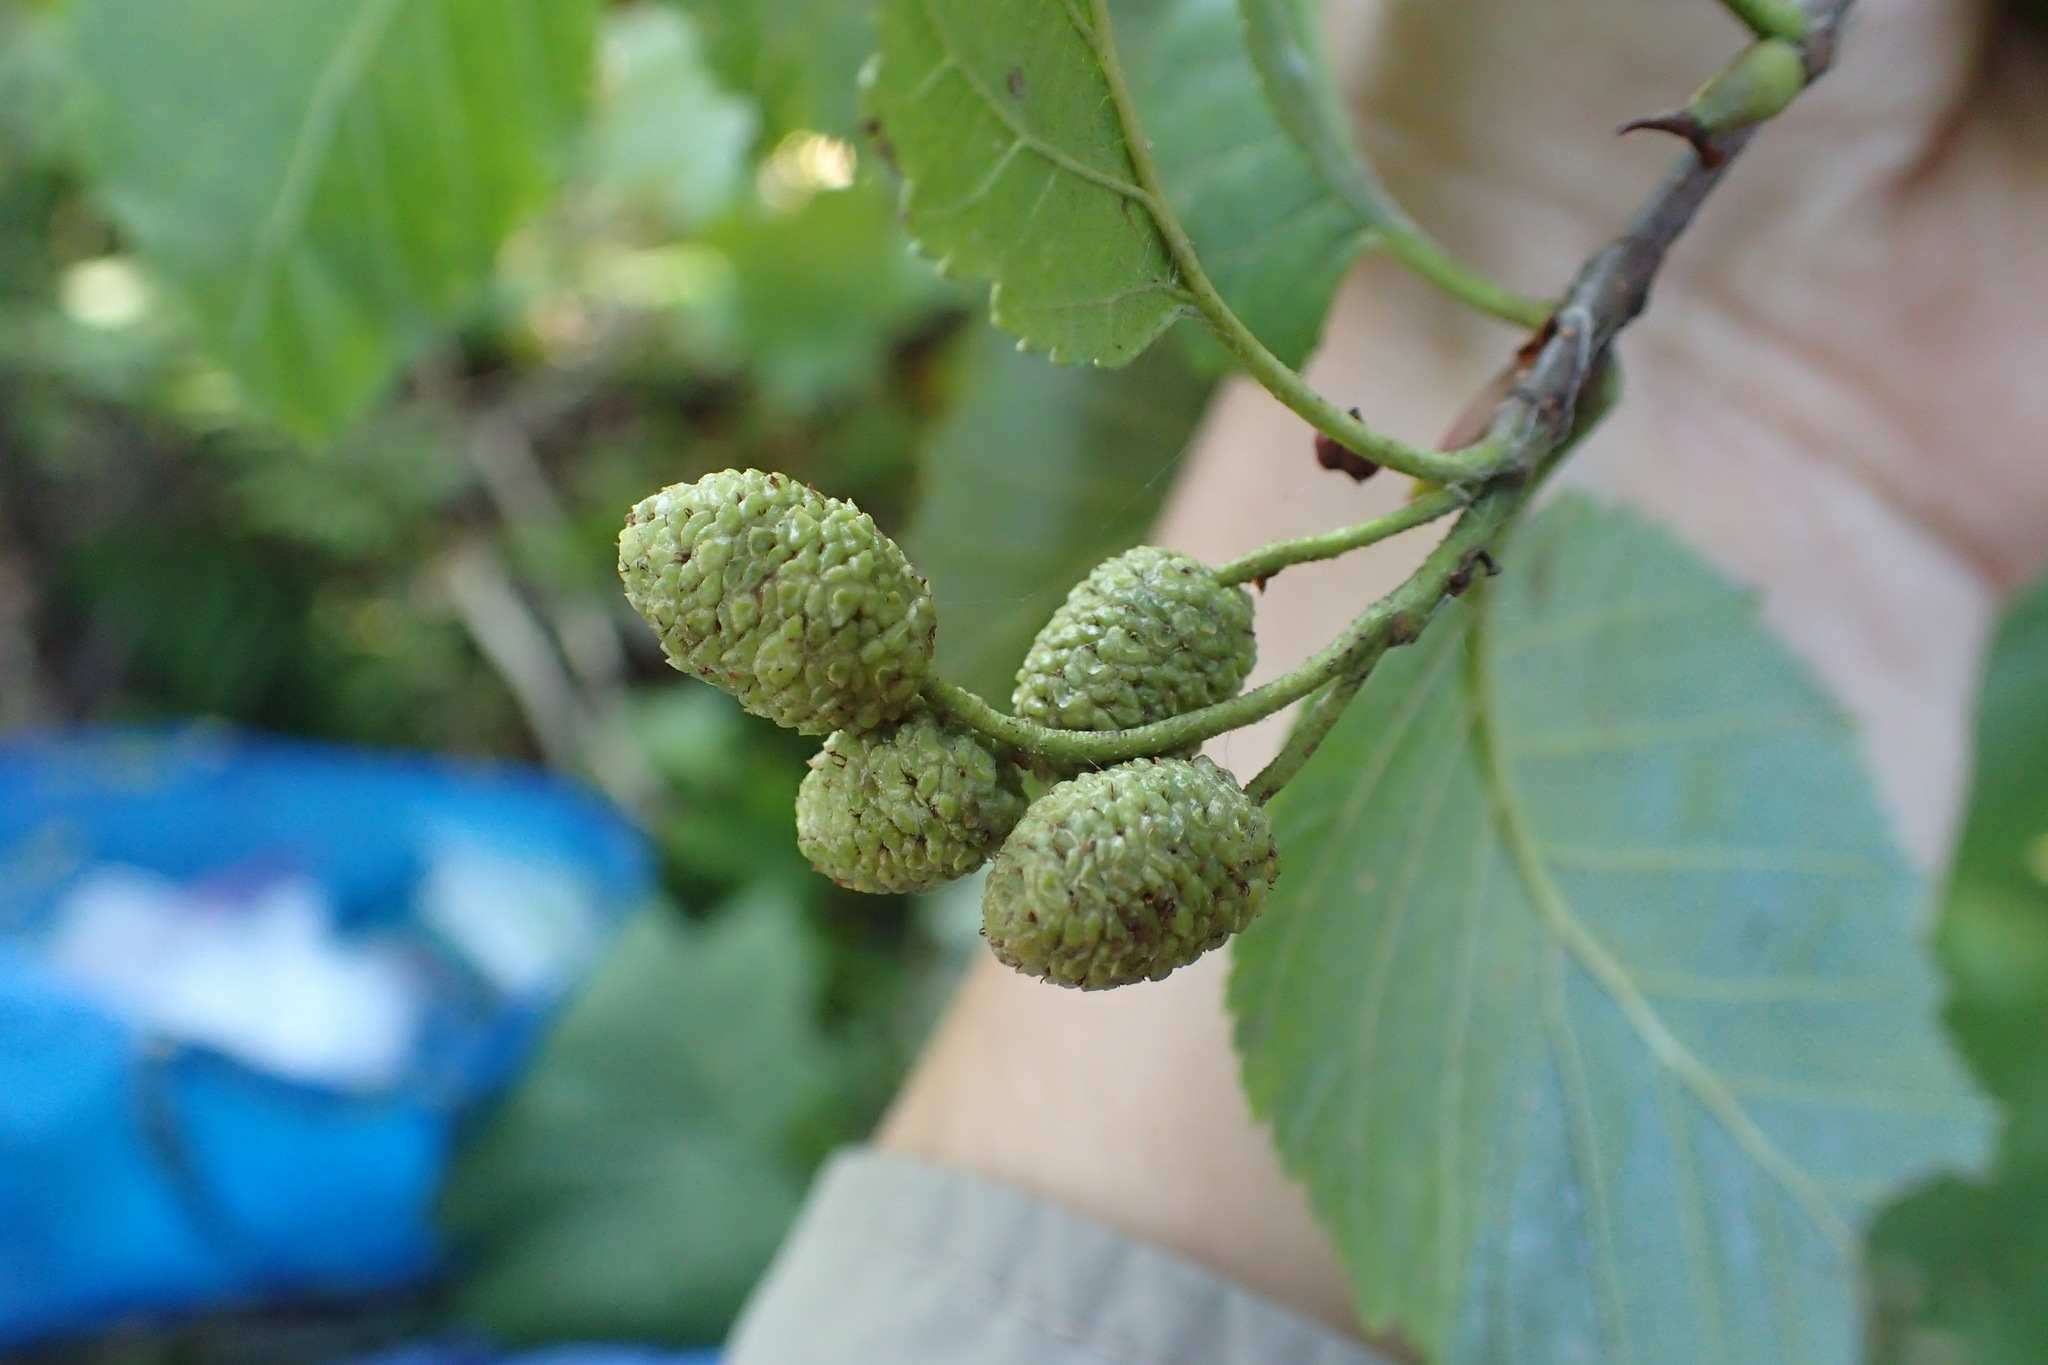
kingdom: Plantae
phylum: Tracheophyta
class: Magnoliopsida
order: Fagales
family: Betulaceae
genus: Alnus
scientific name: Alnus alnobetula
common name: Green alder
